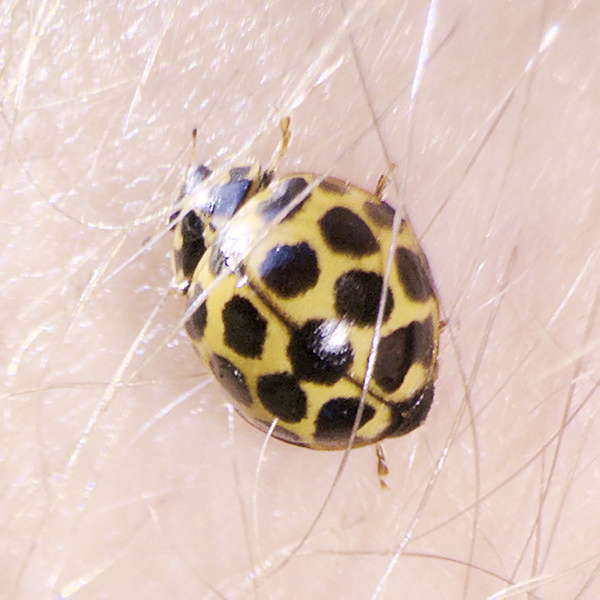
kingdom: Animalia
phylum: Arthropoda
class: Insecta
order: Coleoptera
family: Coccinellidae
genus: Harmonia
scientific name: Harmonia conformis
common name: Common spotted ladybird beetle
